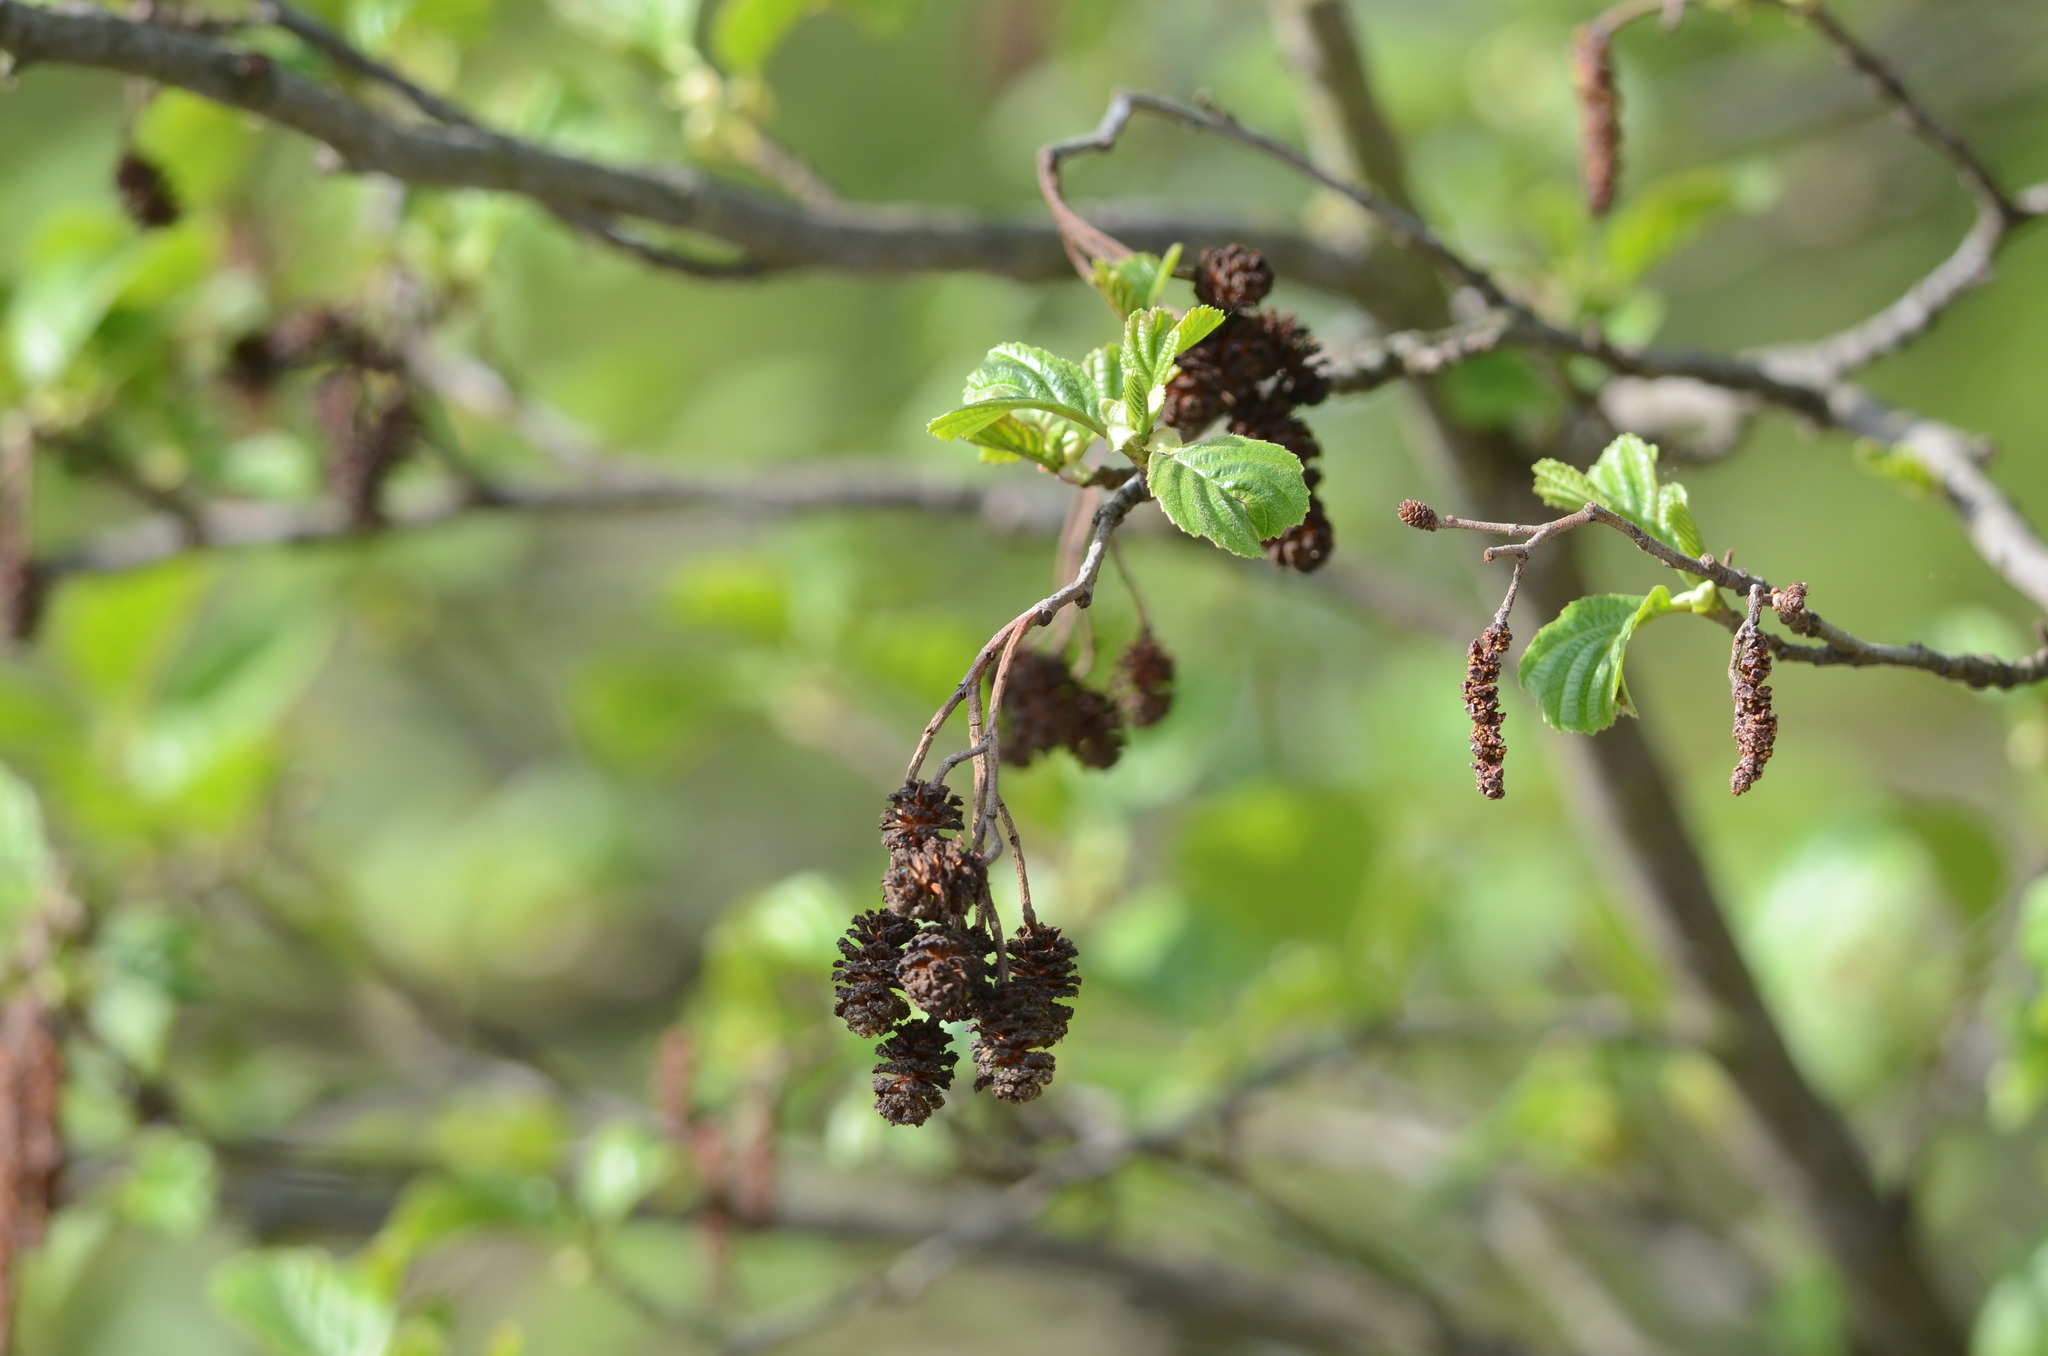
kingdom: Plantae
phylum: Tracheophyta
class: Magnoliopsida
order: Fagales
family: Betulaceae
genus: Alnus
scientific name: Alnus glutinosa
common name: Black alder
